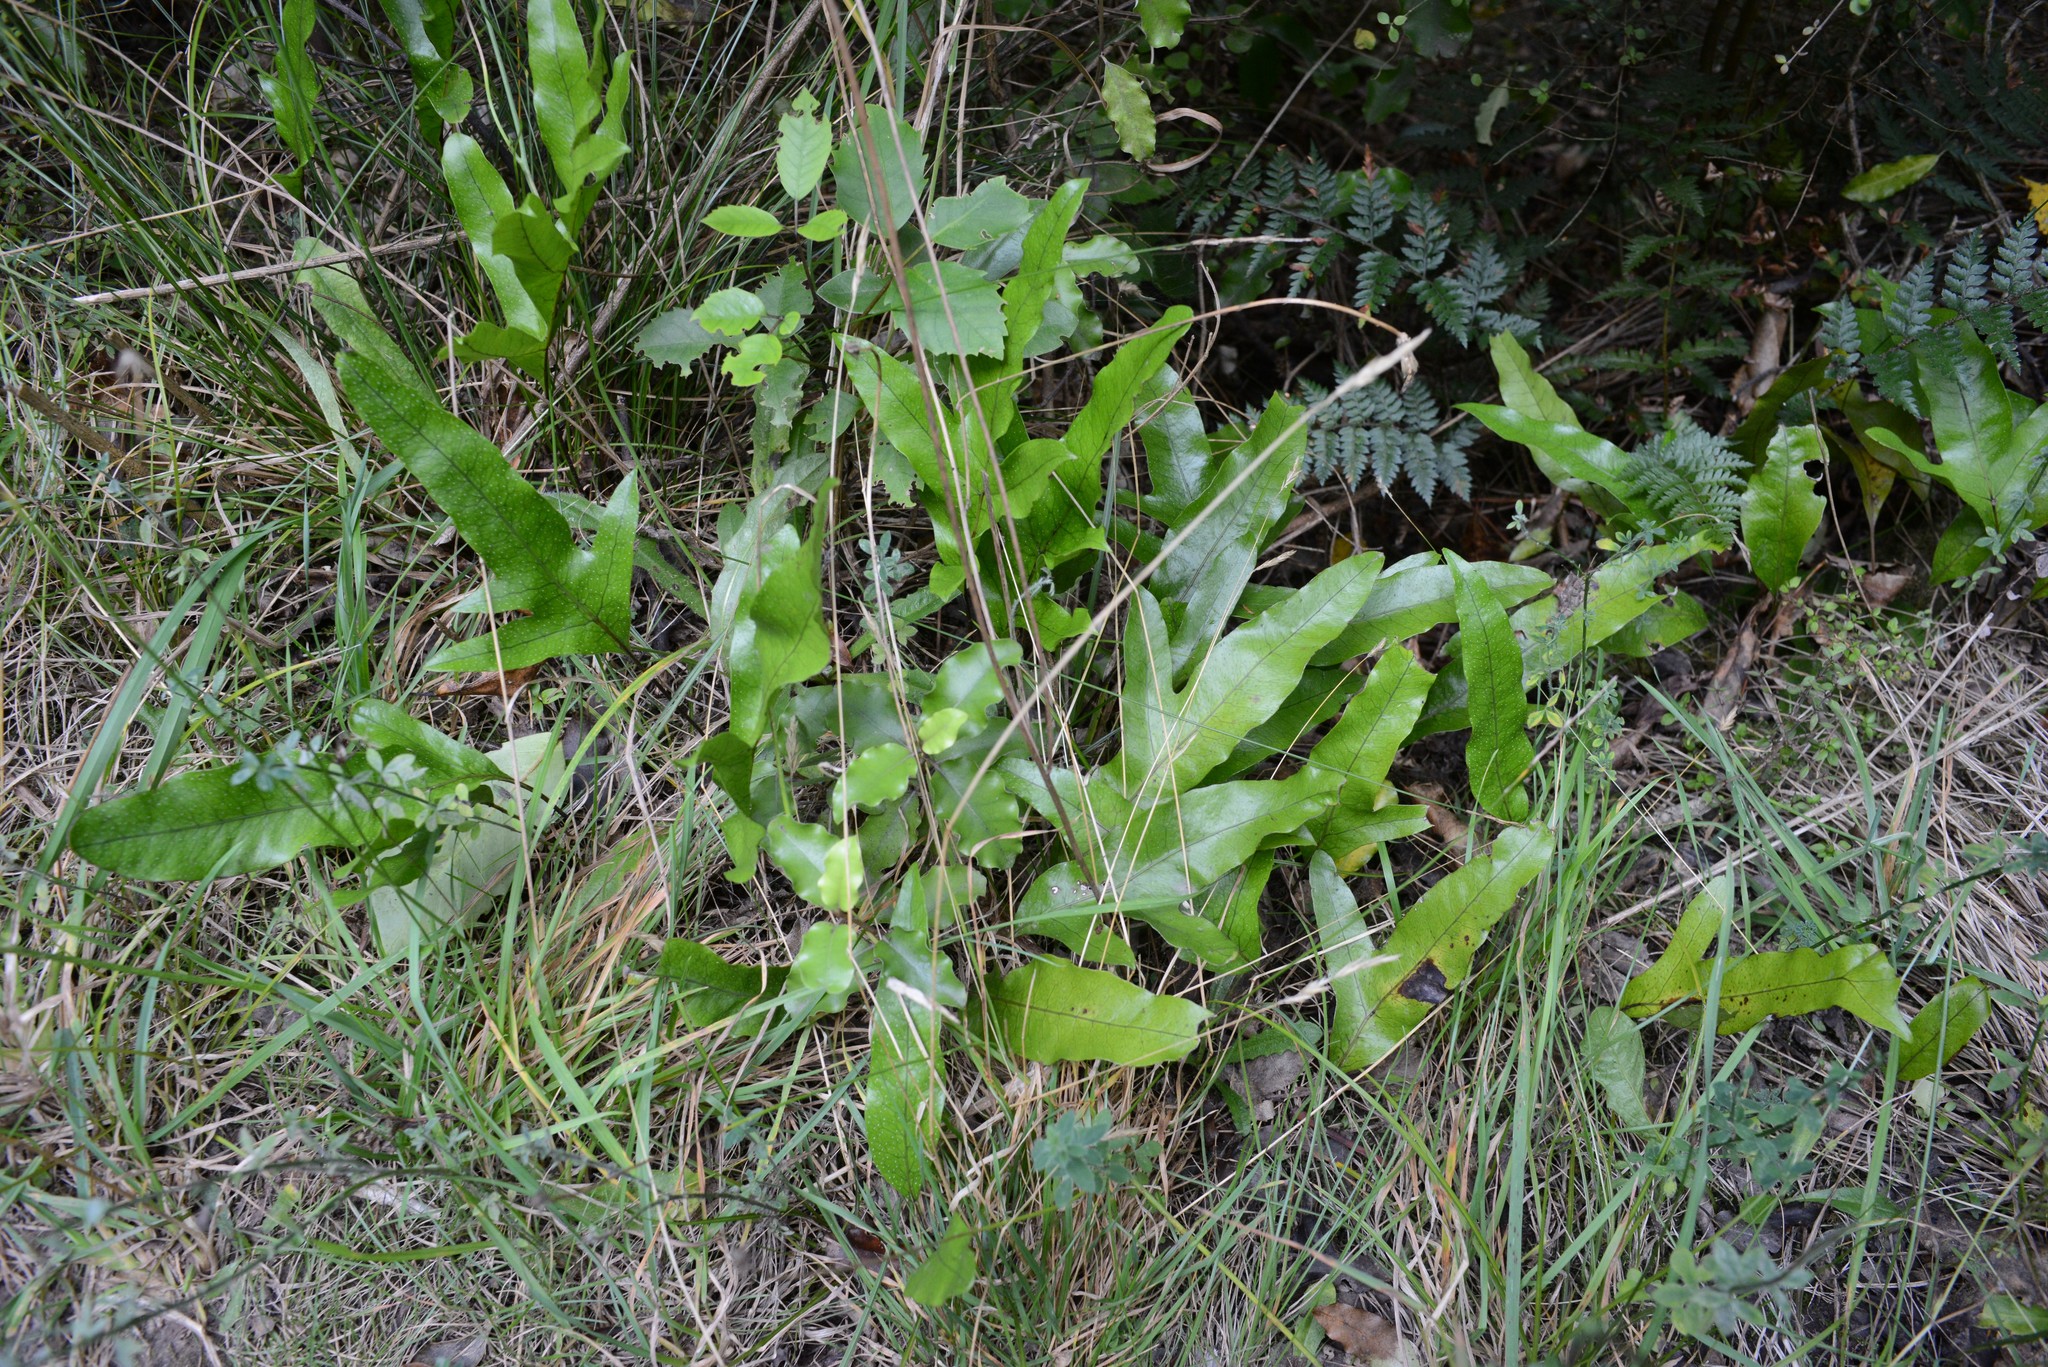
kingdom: Plantae
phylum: Tracheophyta
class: Polypodiopsida
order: Polypodiales
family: Polypodiaceae
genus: Lecanopteris
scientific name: Lecanopteris pustulata
